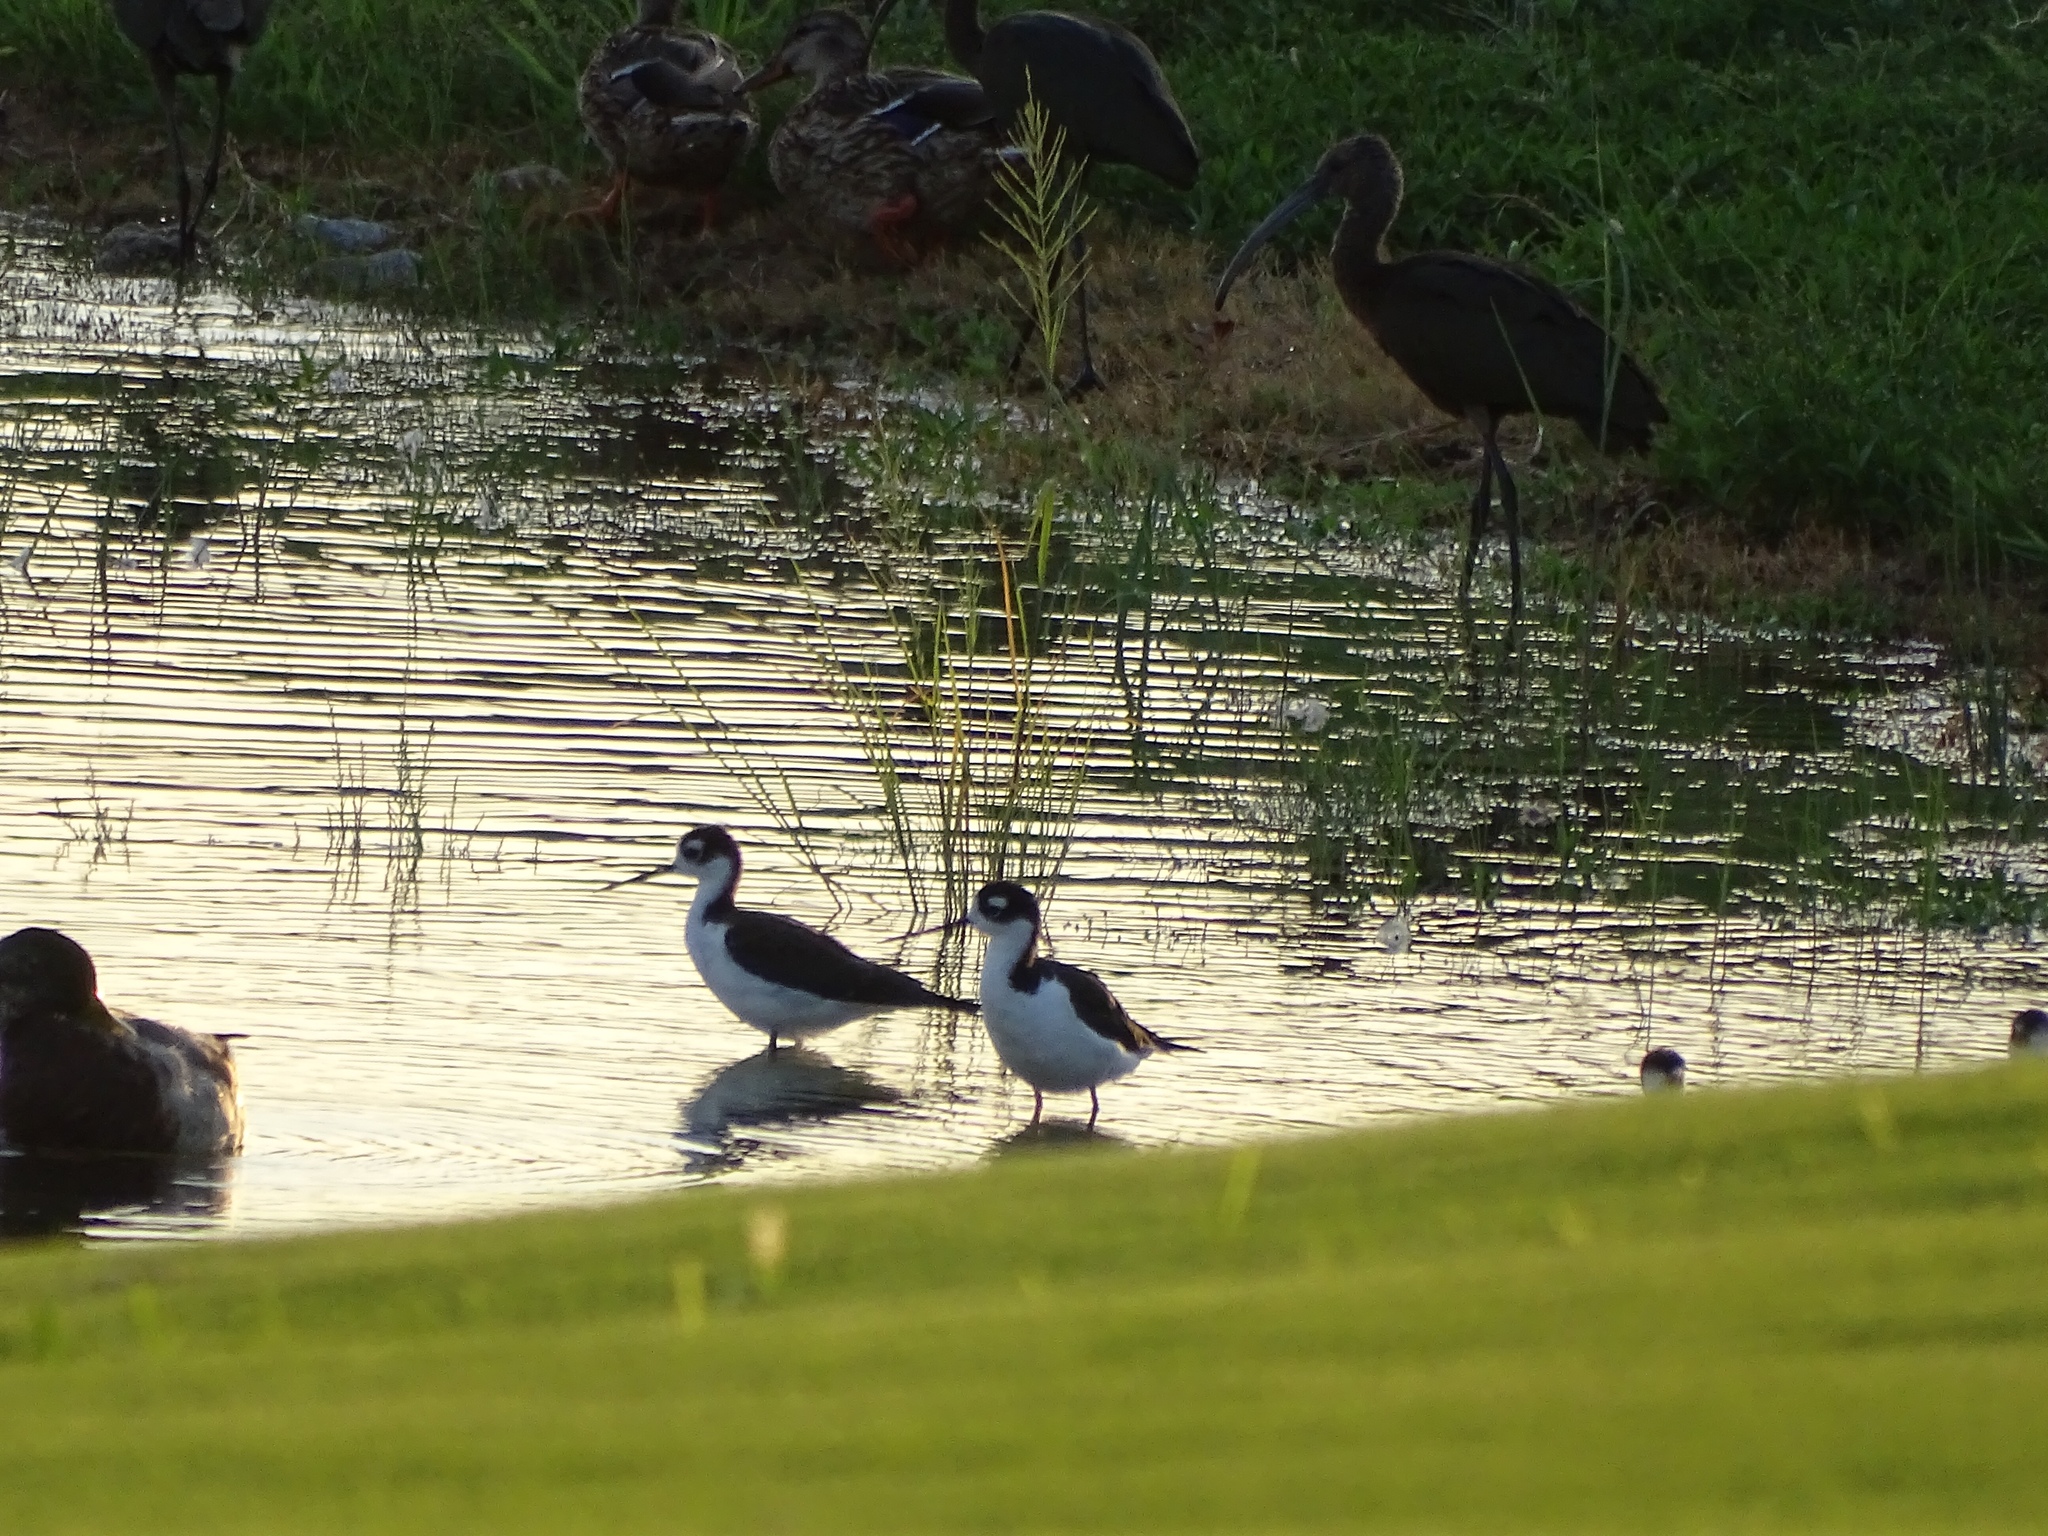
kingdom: Animalia
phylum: Chordata
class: Aves
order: Charadriiformes
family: Recurvirostridae
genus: Himantopus
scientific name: Himantopus mexicanus
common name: Black-necked stilt
